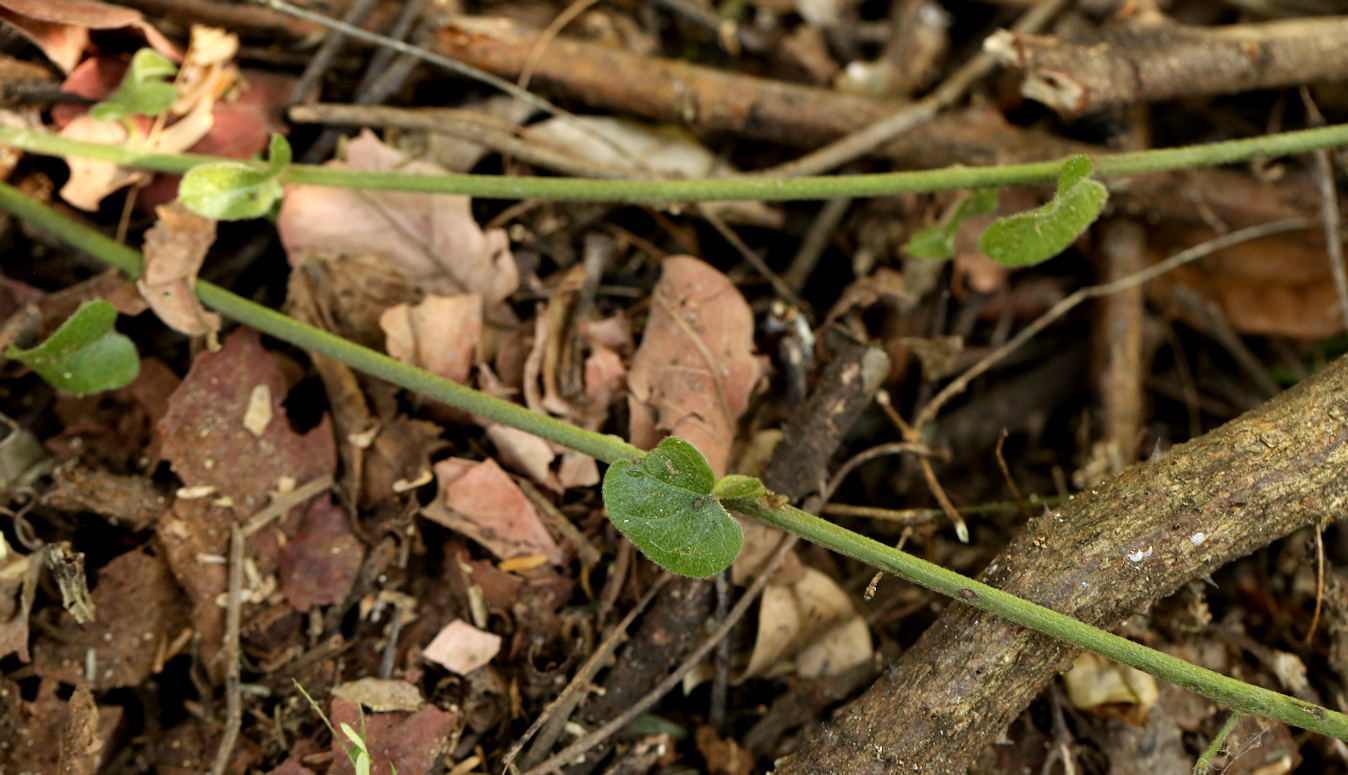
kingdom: Plantae
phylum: Tracheophyta
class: Magnoliopsida
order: Ranunculales
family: Menispermaceae
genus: Cocculus
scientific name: Cocculus hirsutus
